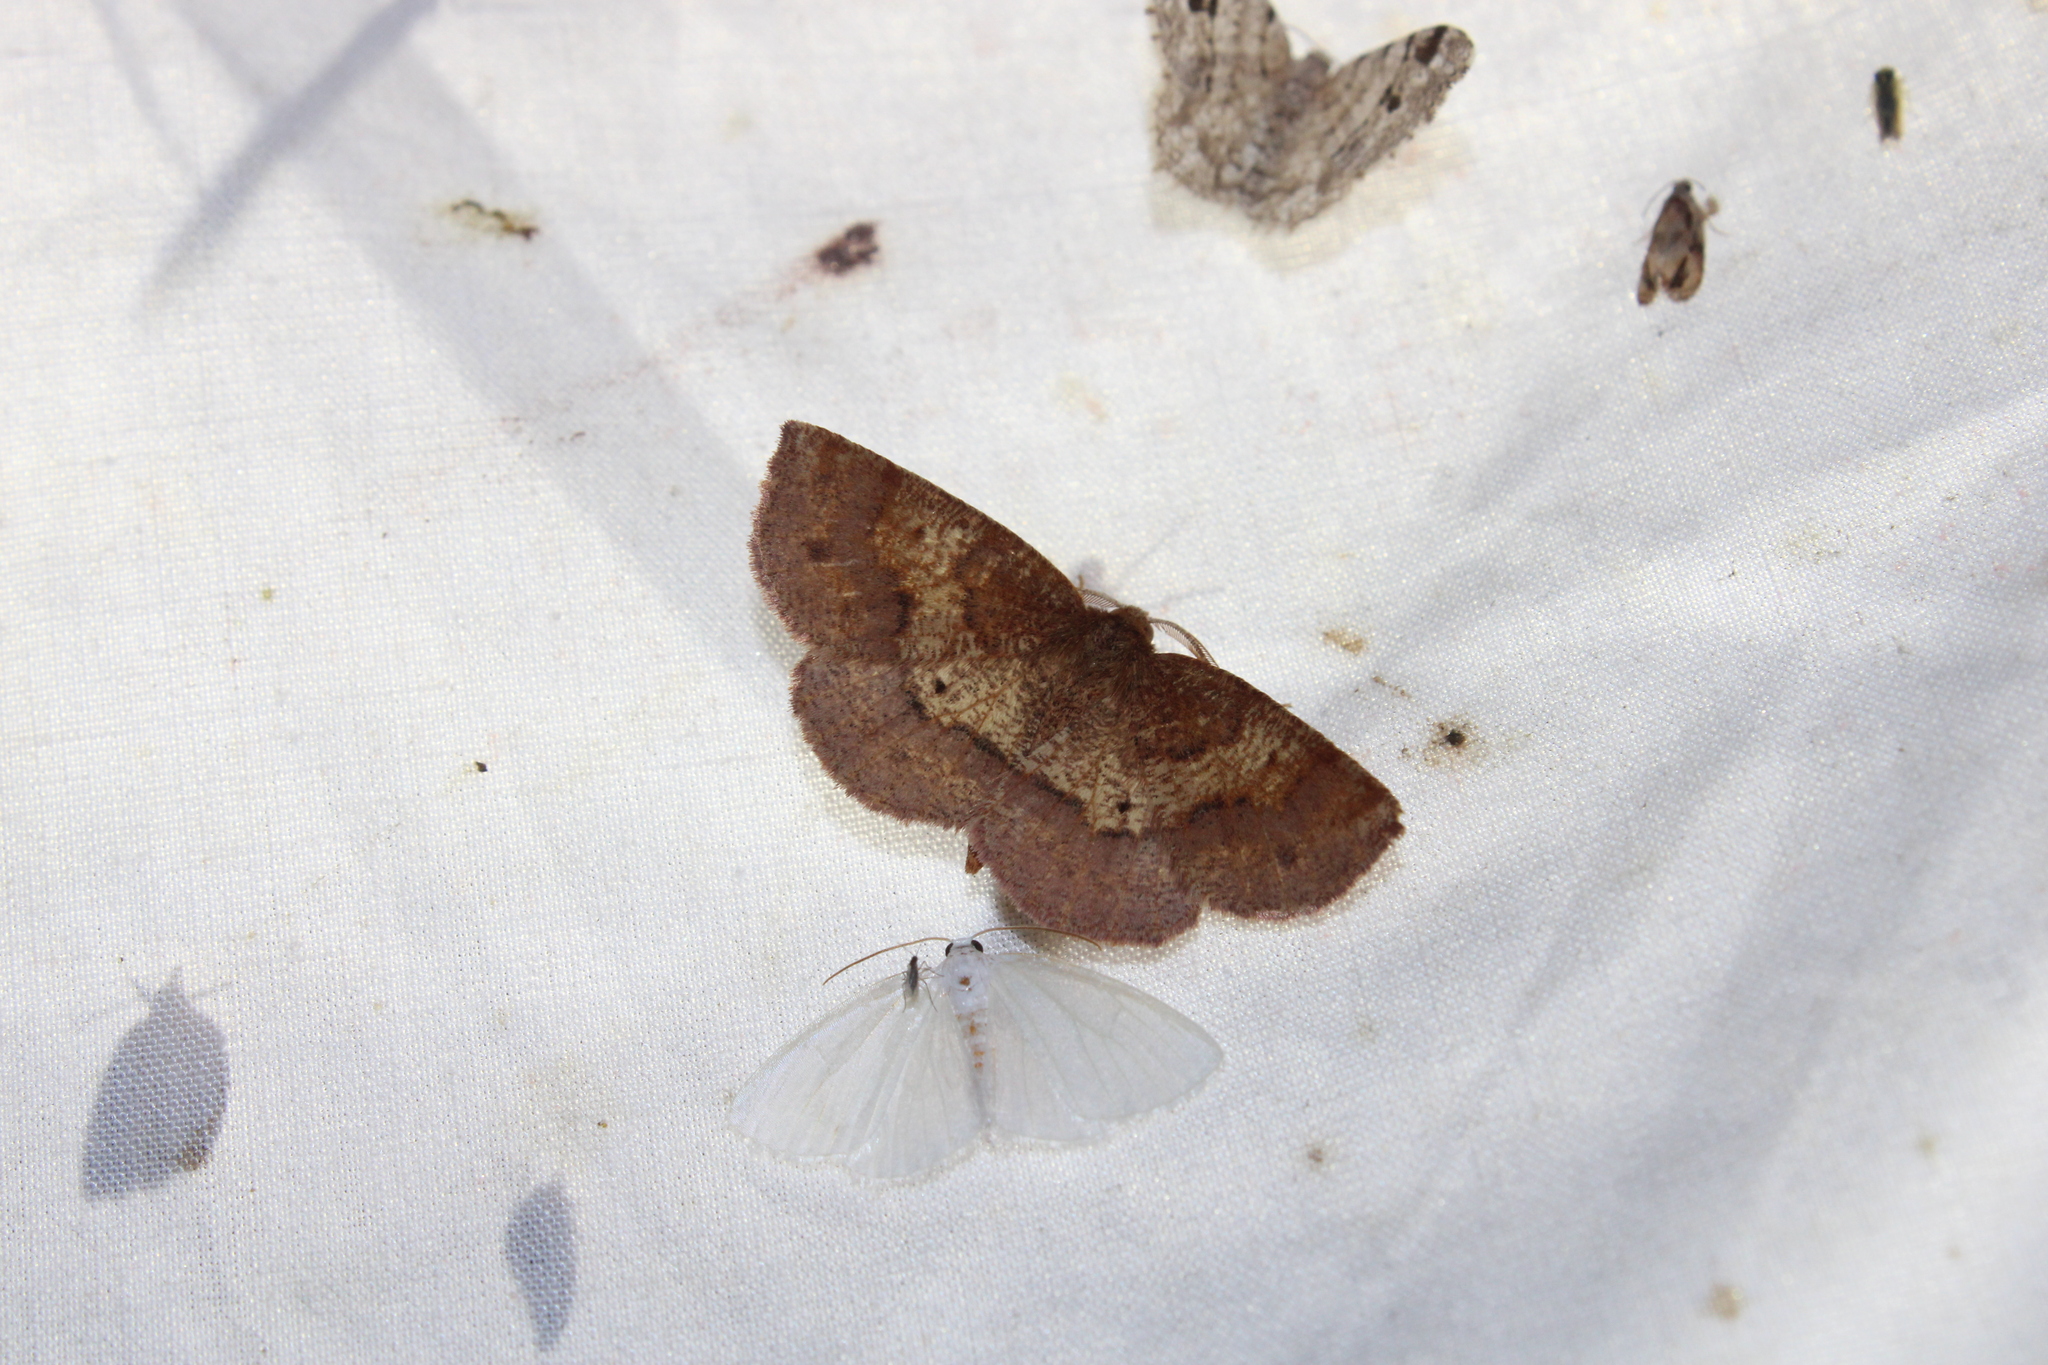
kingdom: Animalia
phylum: Arthropoda
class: Insecta
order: Lepidoptera
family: Geometridae
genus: Metarranthis
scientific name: Metarranthis angularia
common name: Angled metarranthis moth
